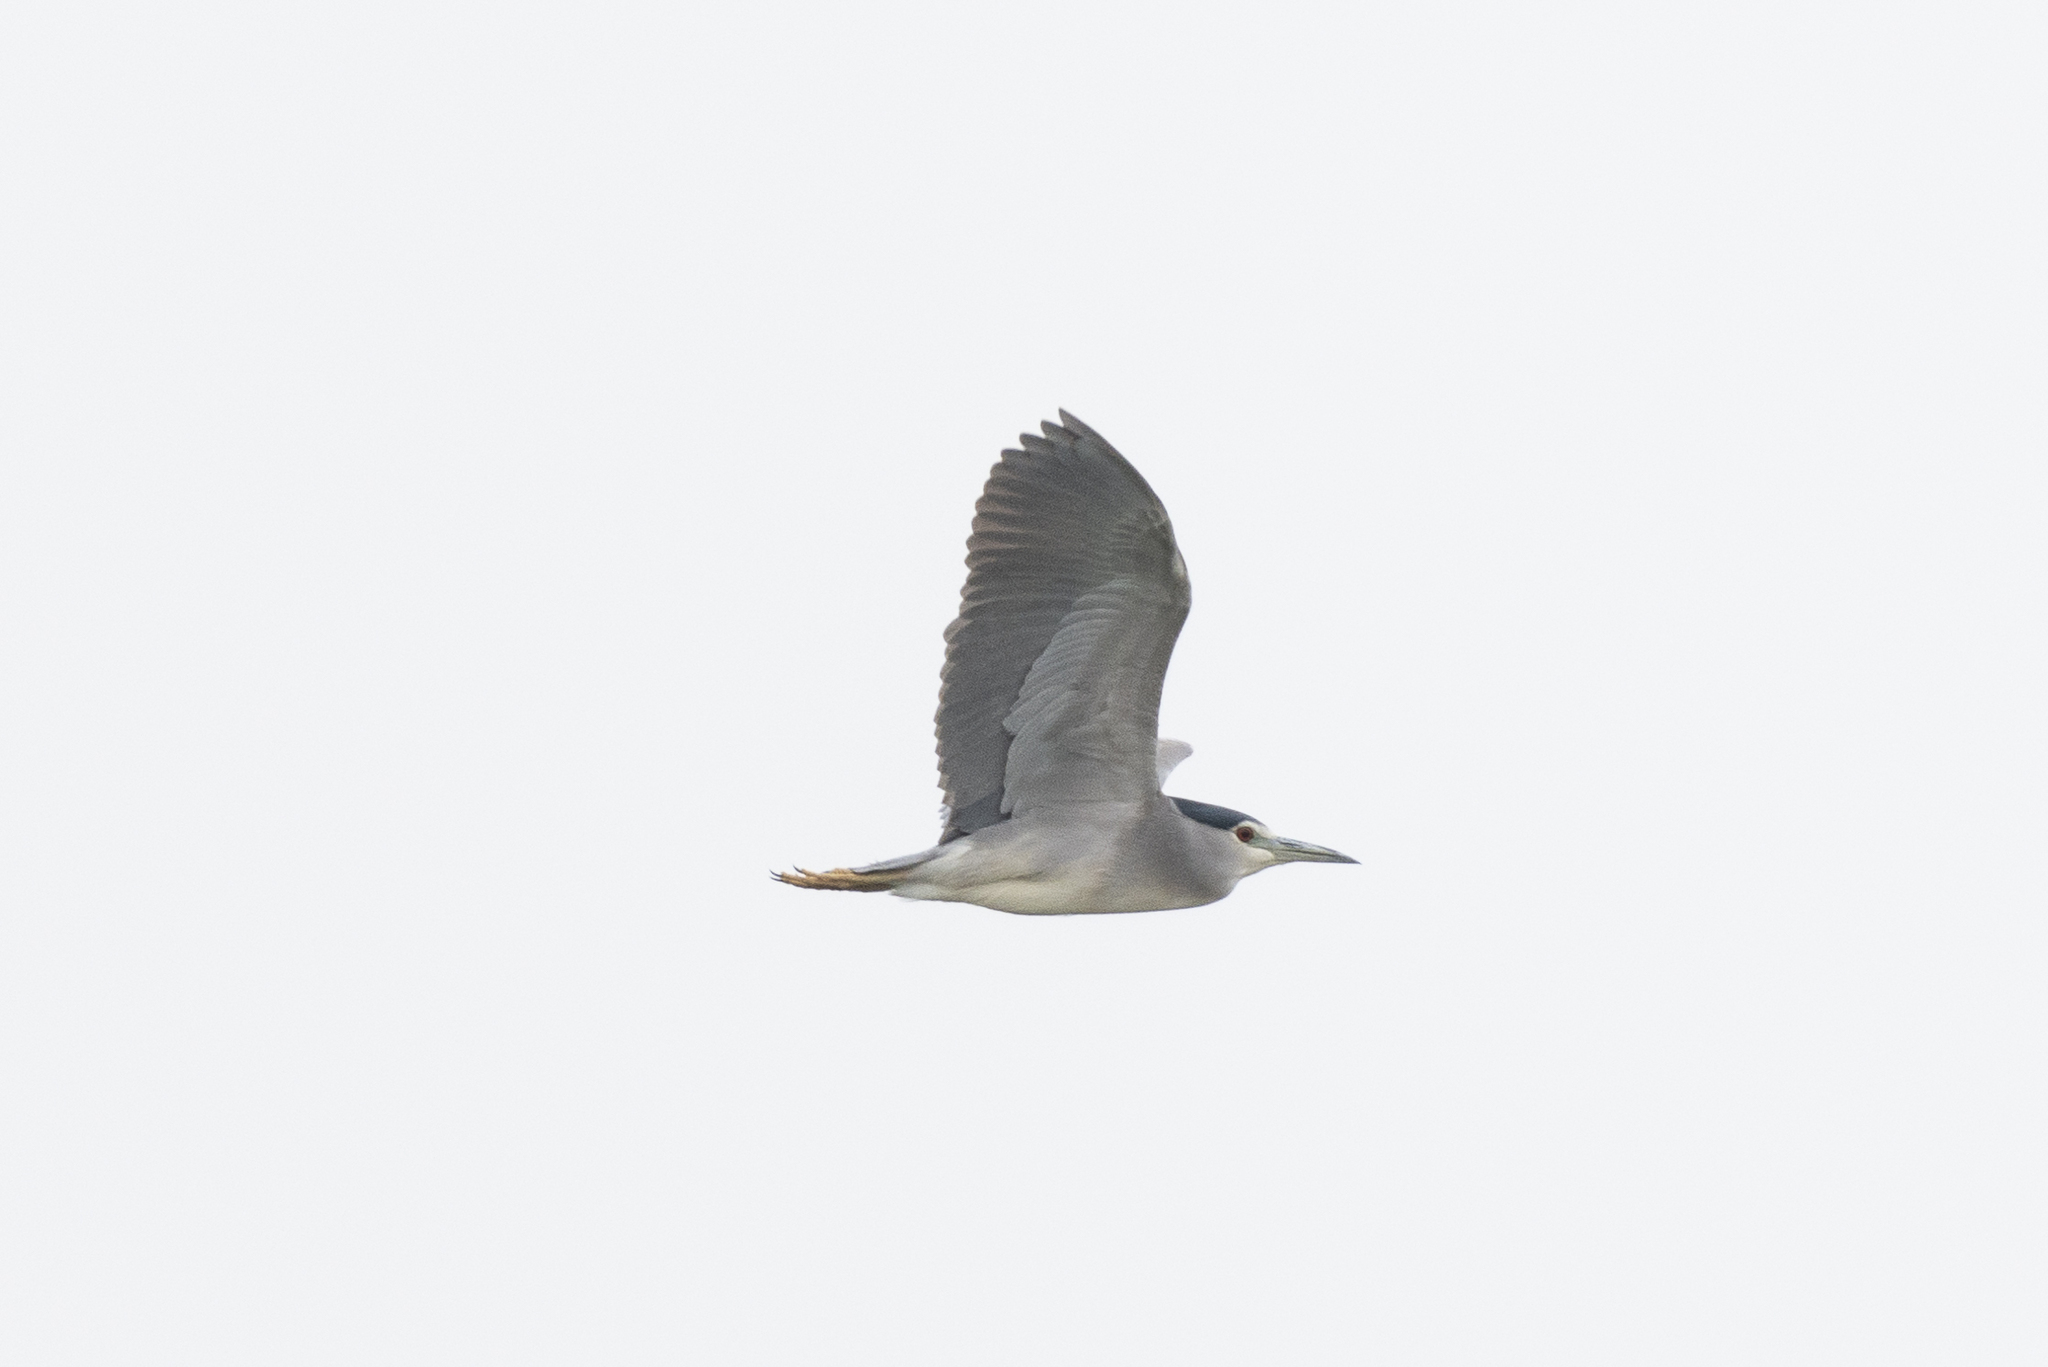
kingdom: Animalia
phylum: Chordata
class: Aves
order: Pelecaniformes
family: Ardeidae
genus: Nycticorax
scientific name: Nycticorax nycticorax
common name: Black-crowned night heron
